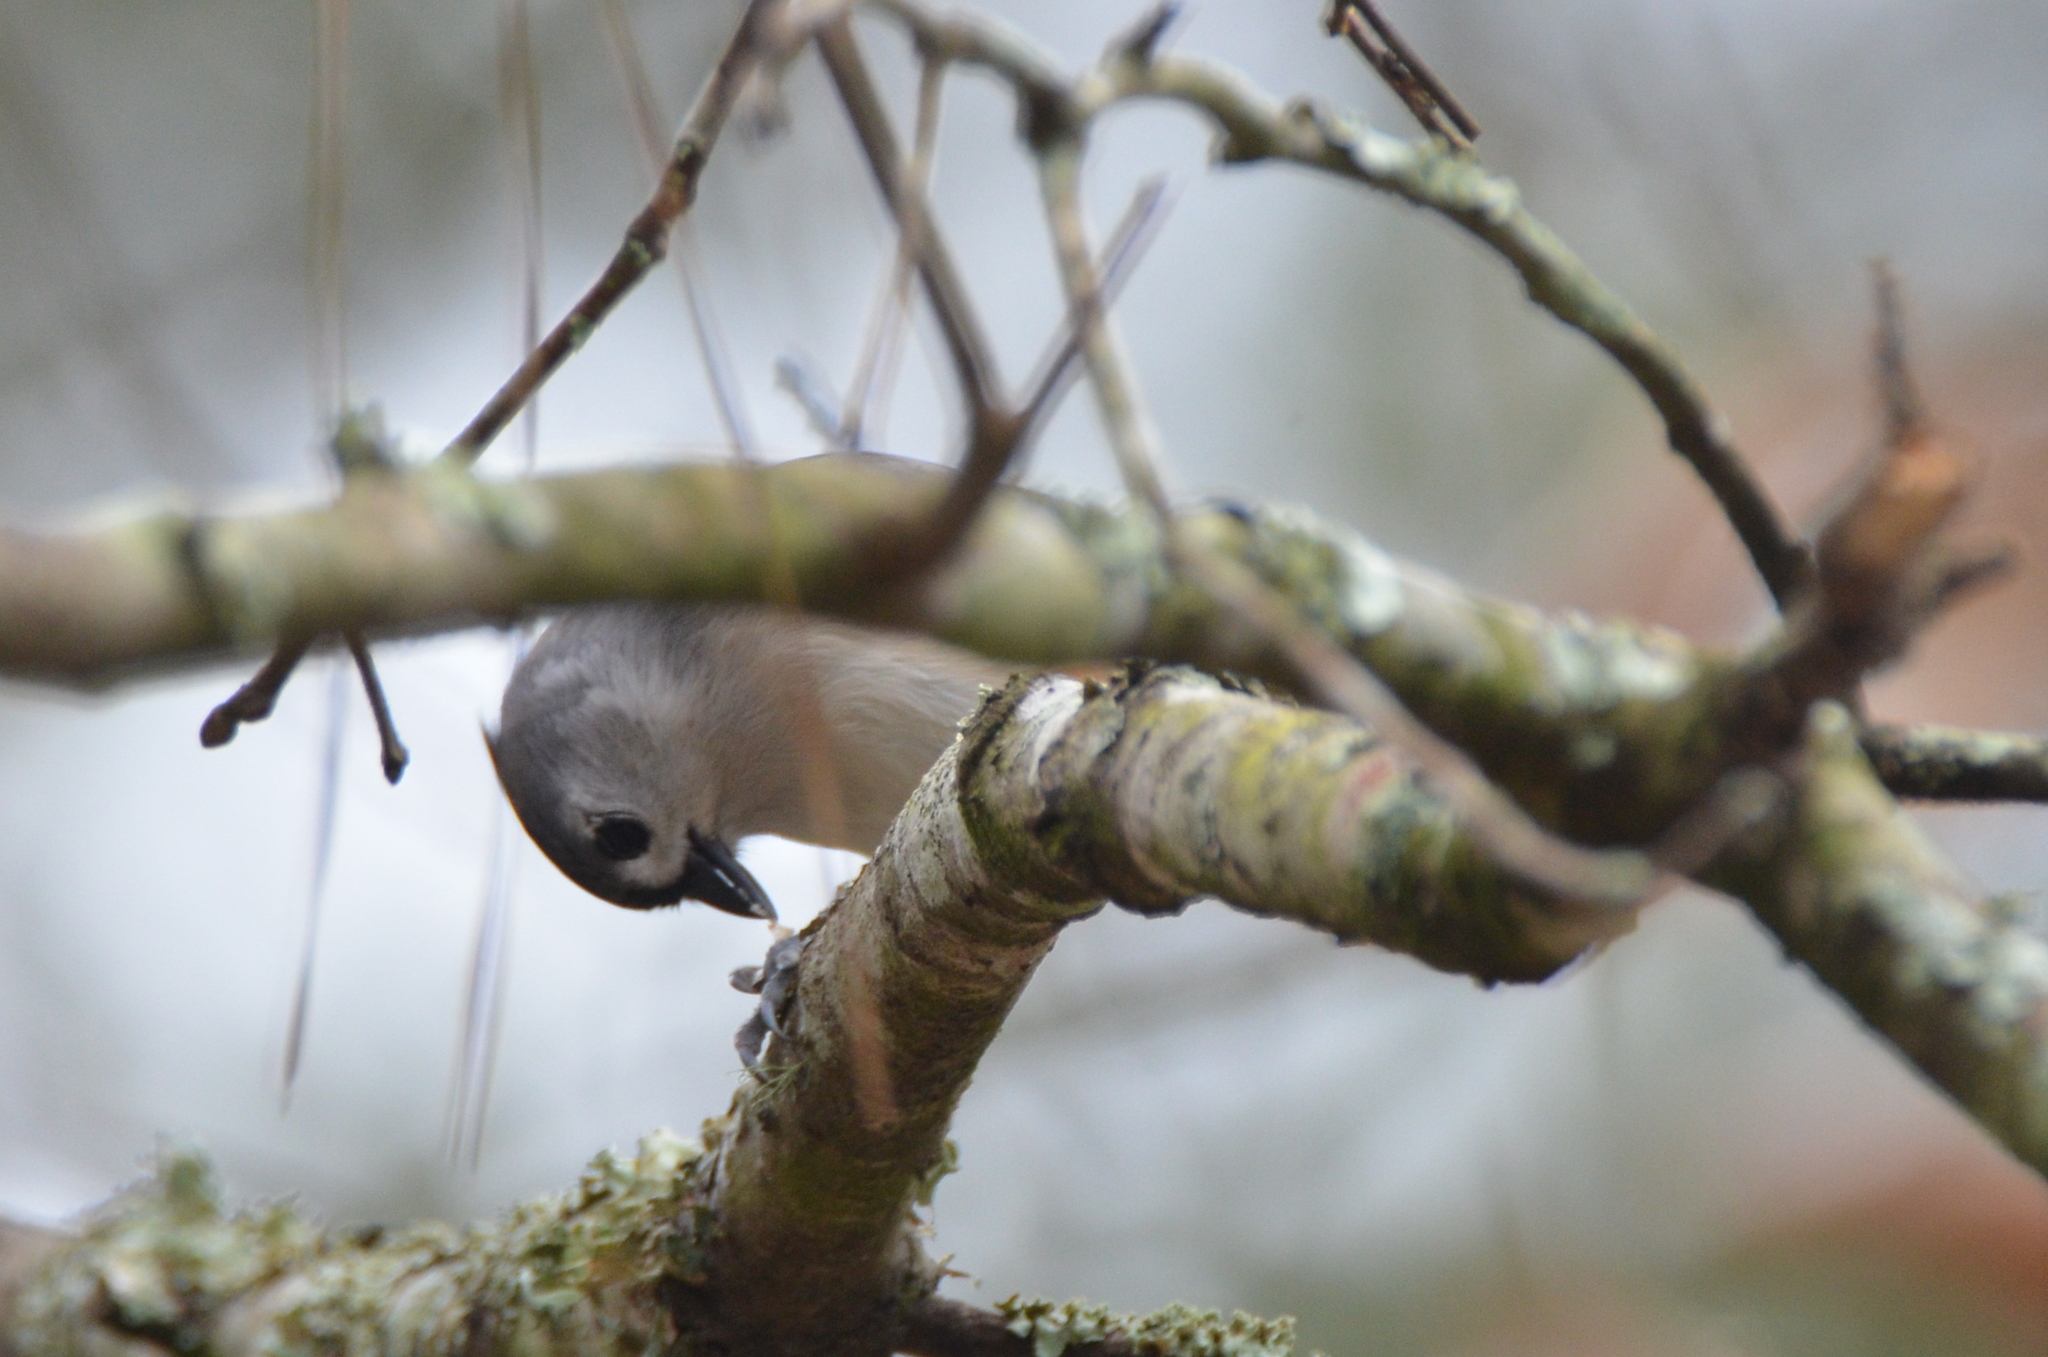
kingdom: Animalia
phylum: Chordata
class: Aves
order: Passeriformes
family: Paridae
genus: Baeolophus
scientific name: Baeolophus bicolor
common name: Tufted titmouse
